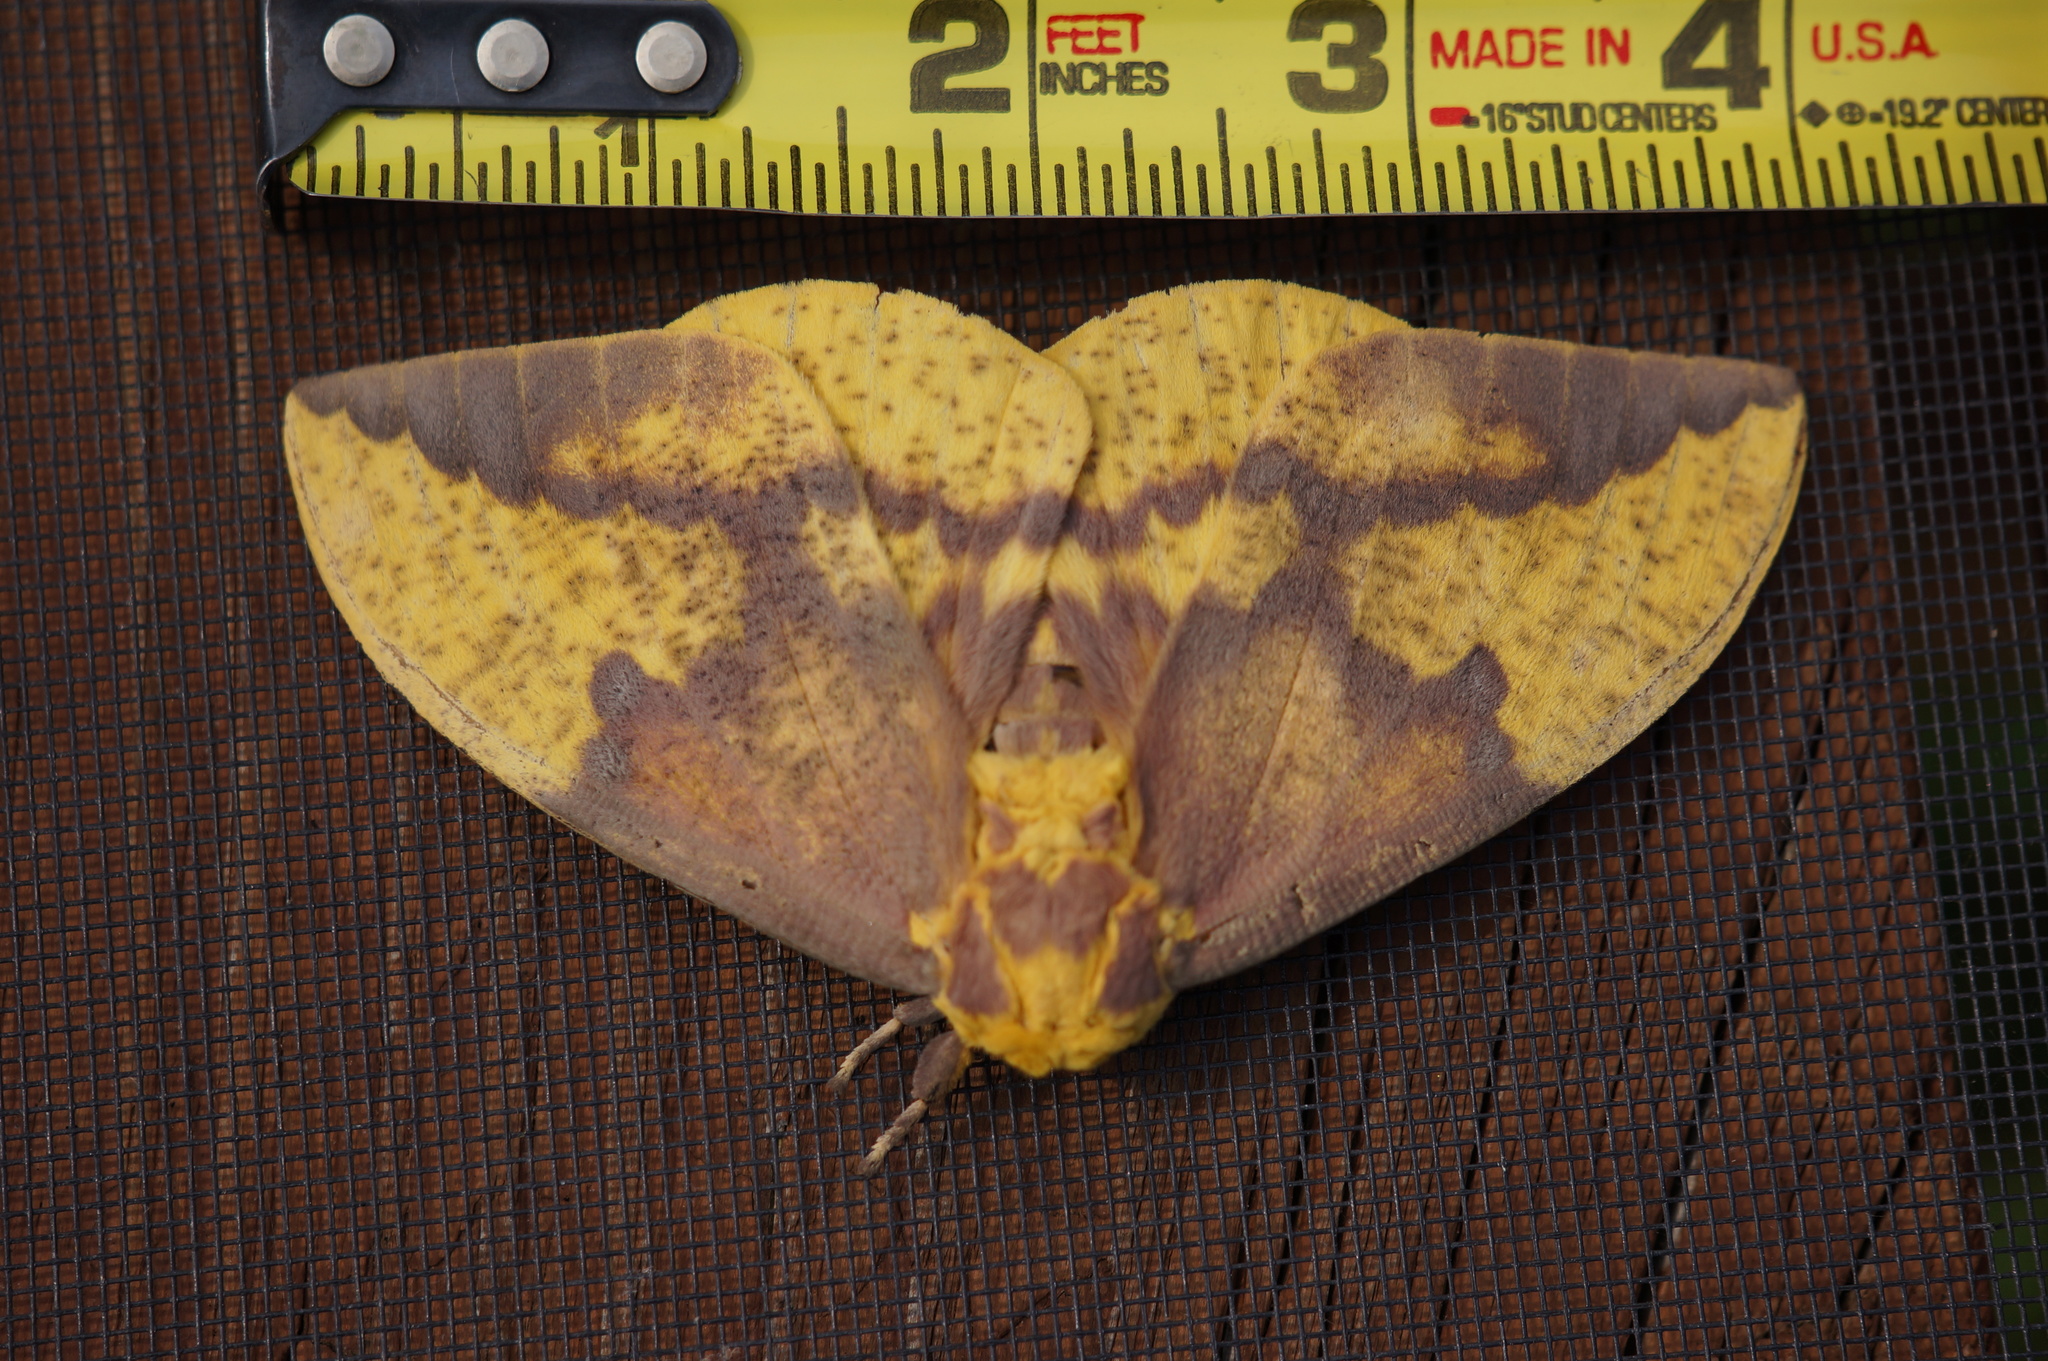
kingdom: Animalia
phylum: Arthropoda
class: Insecta
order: Lepidoptera
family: Saturniidae
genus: Eacles
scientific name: Eacles imperialis
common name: Imperial moth
